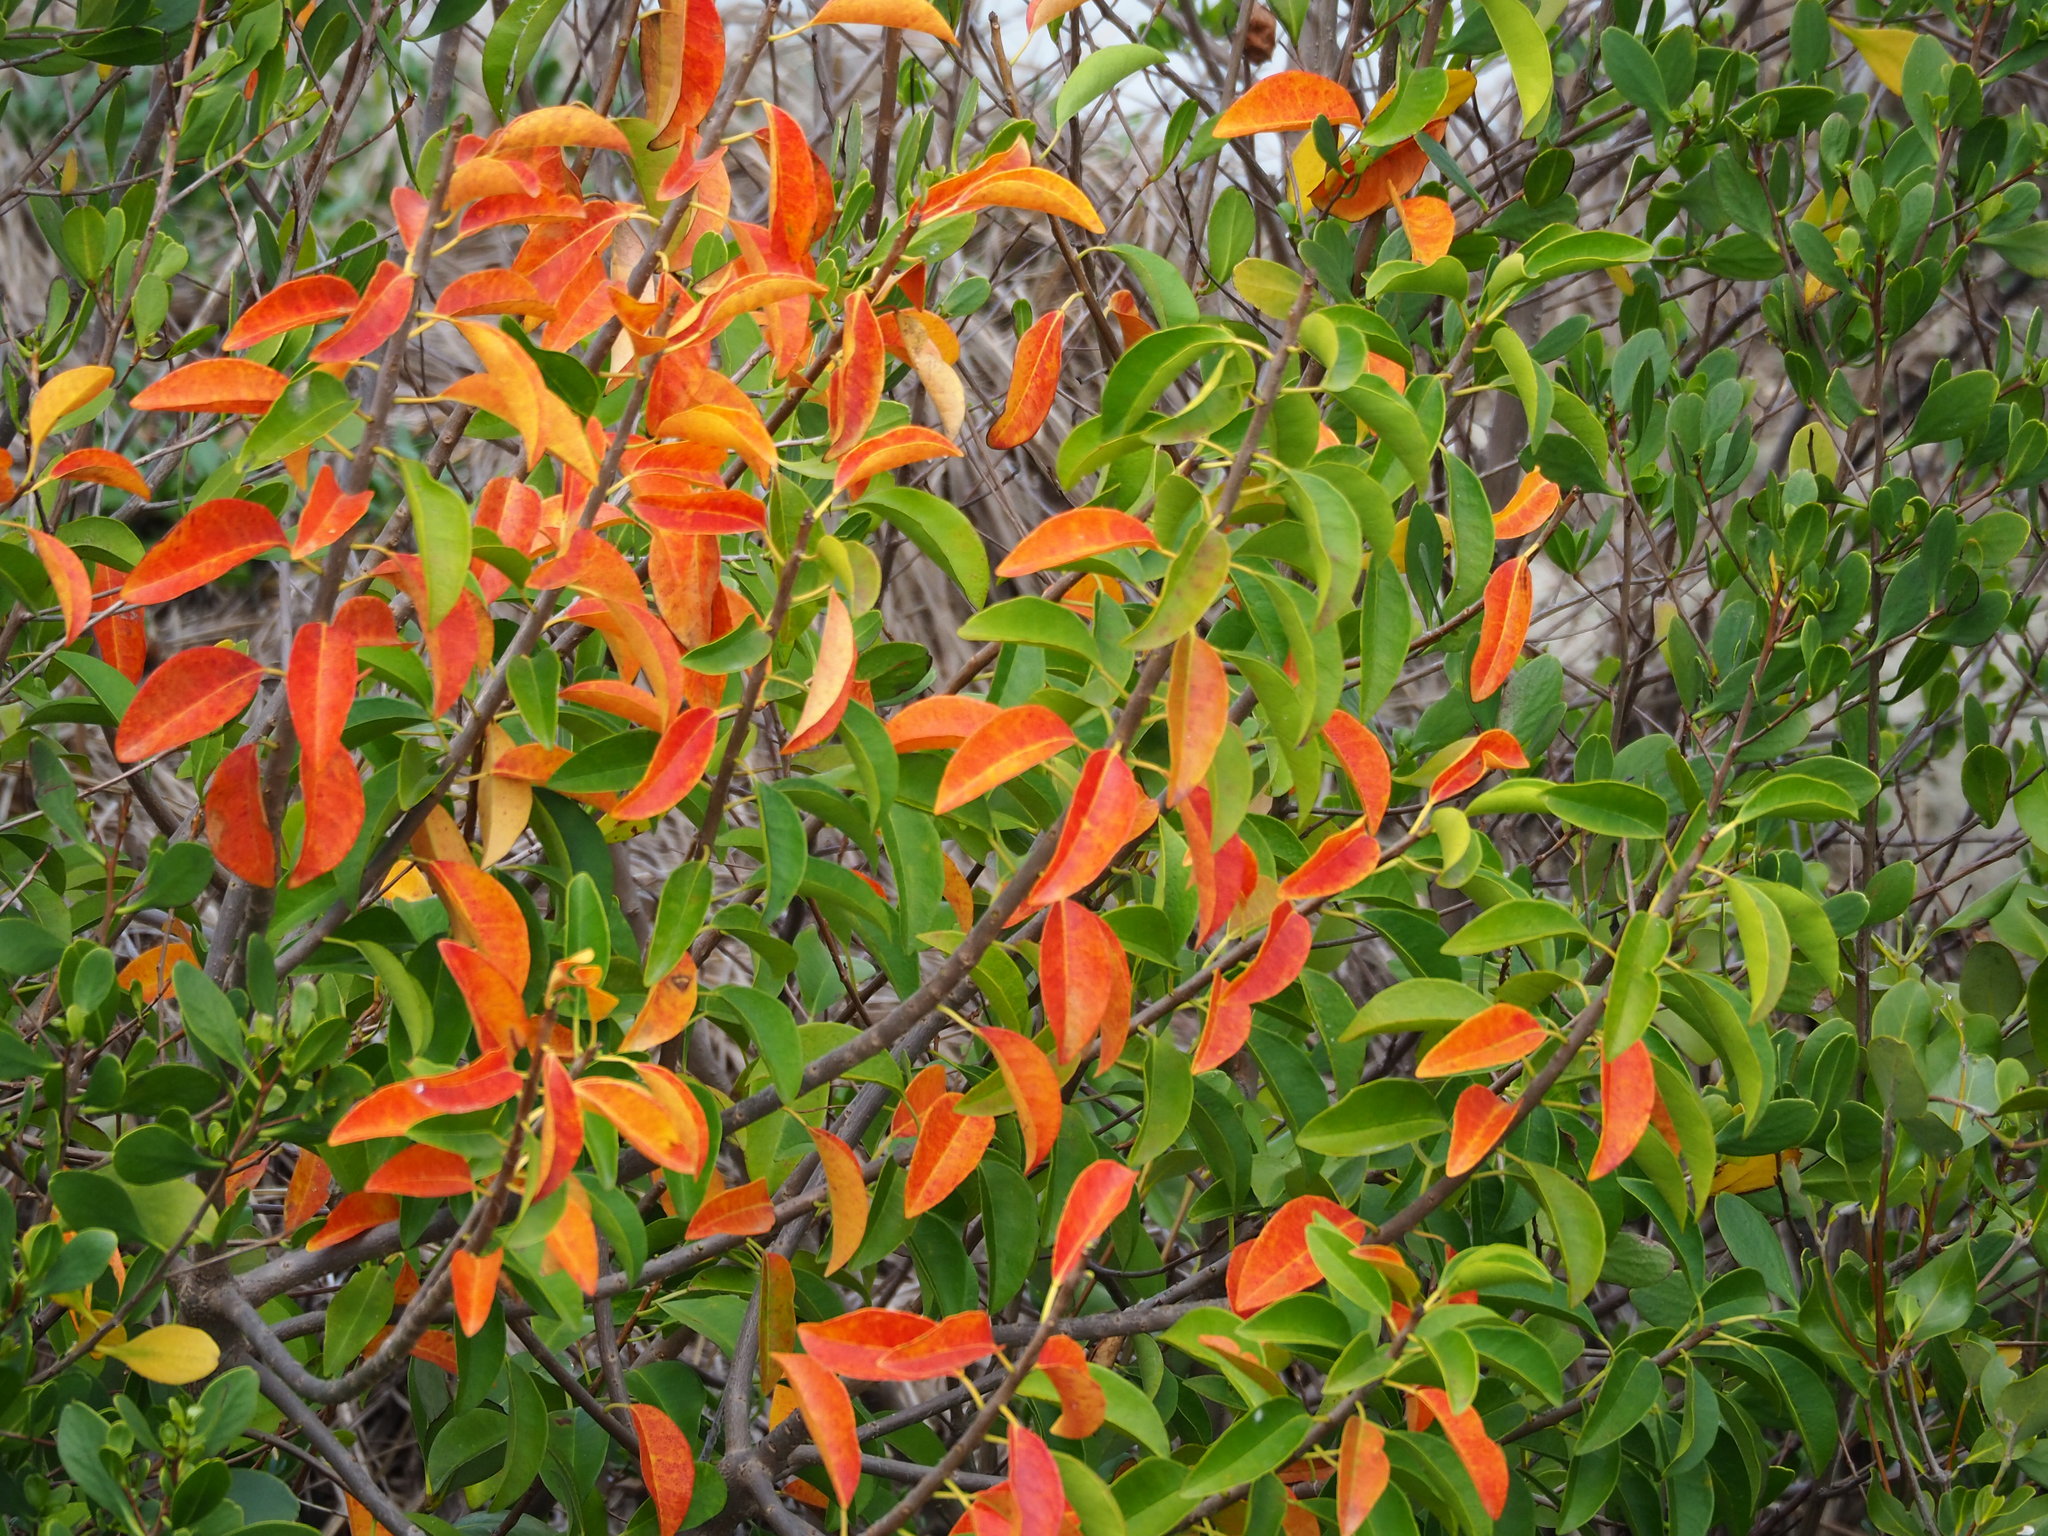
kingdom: Plantae
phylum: Tracheophyta
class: Magnoliopsida
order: Malpighiales
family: Euphorbiaceae
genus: Excoecaria
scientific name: Excoecaria agallocha
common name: River poisontree
